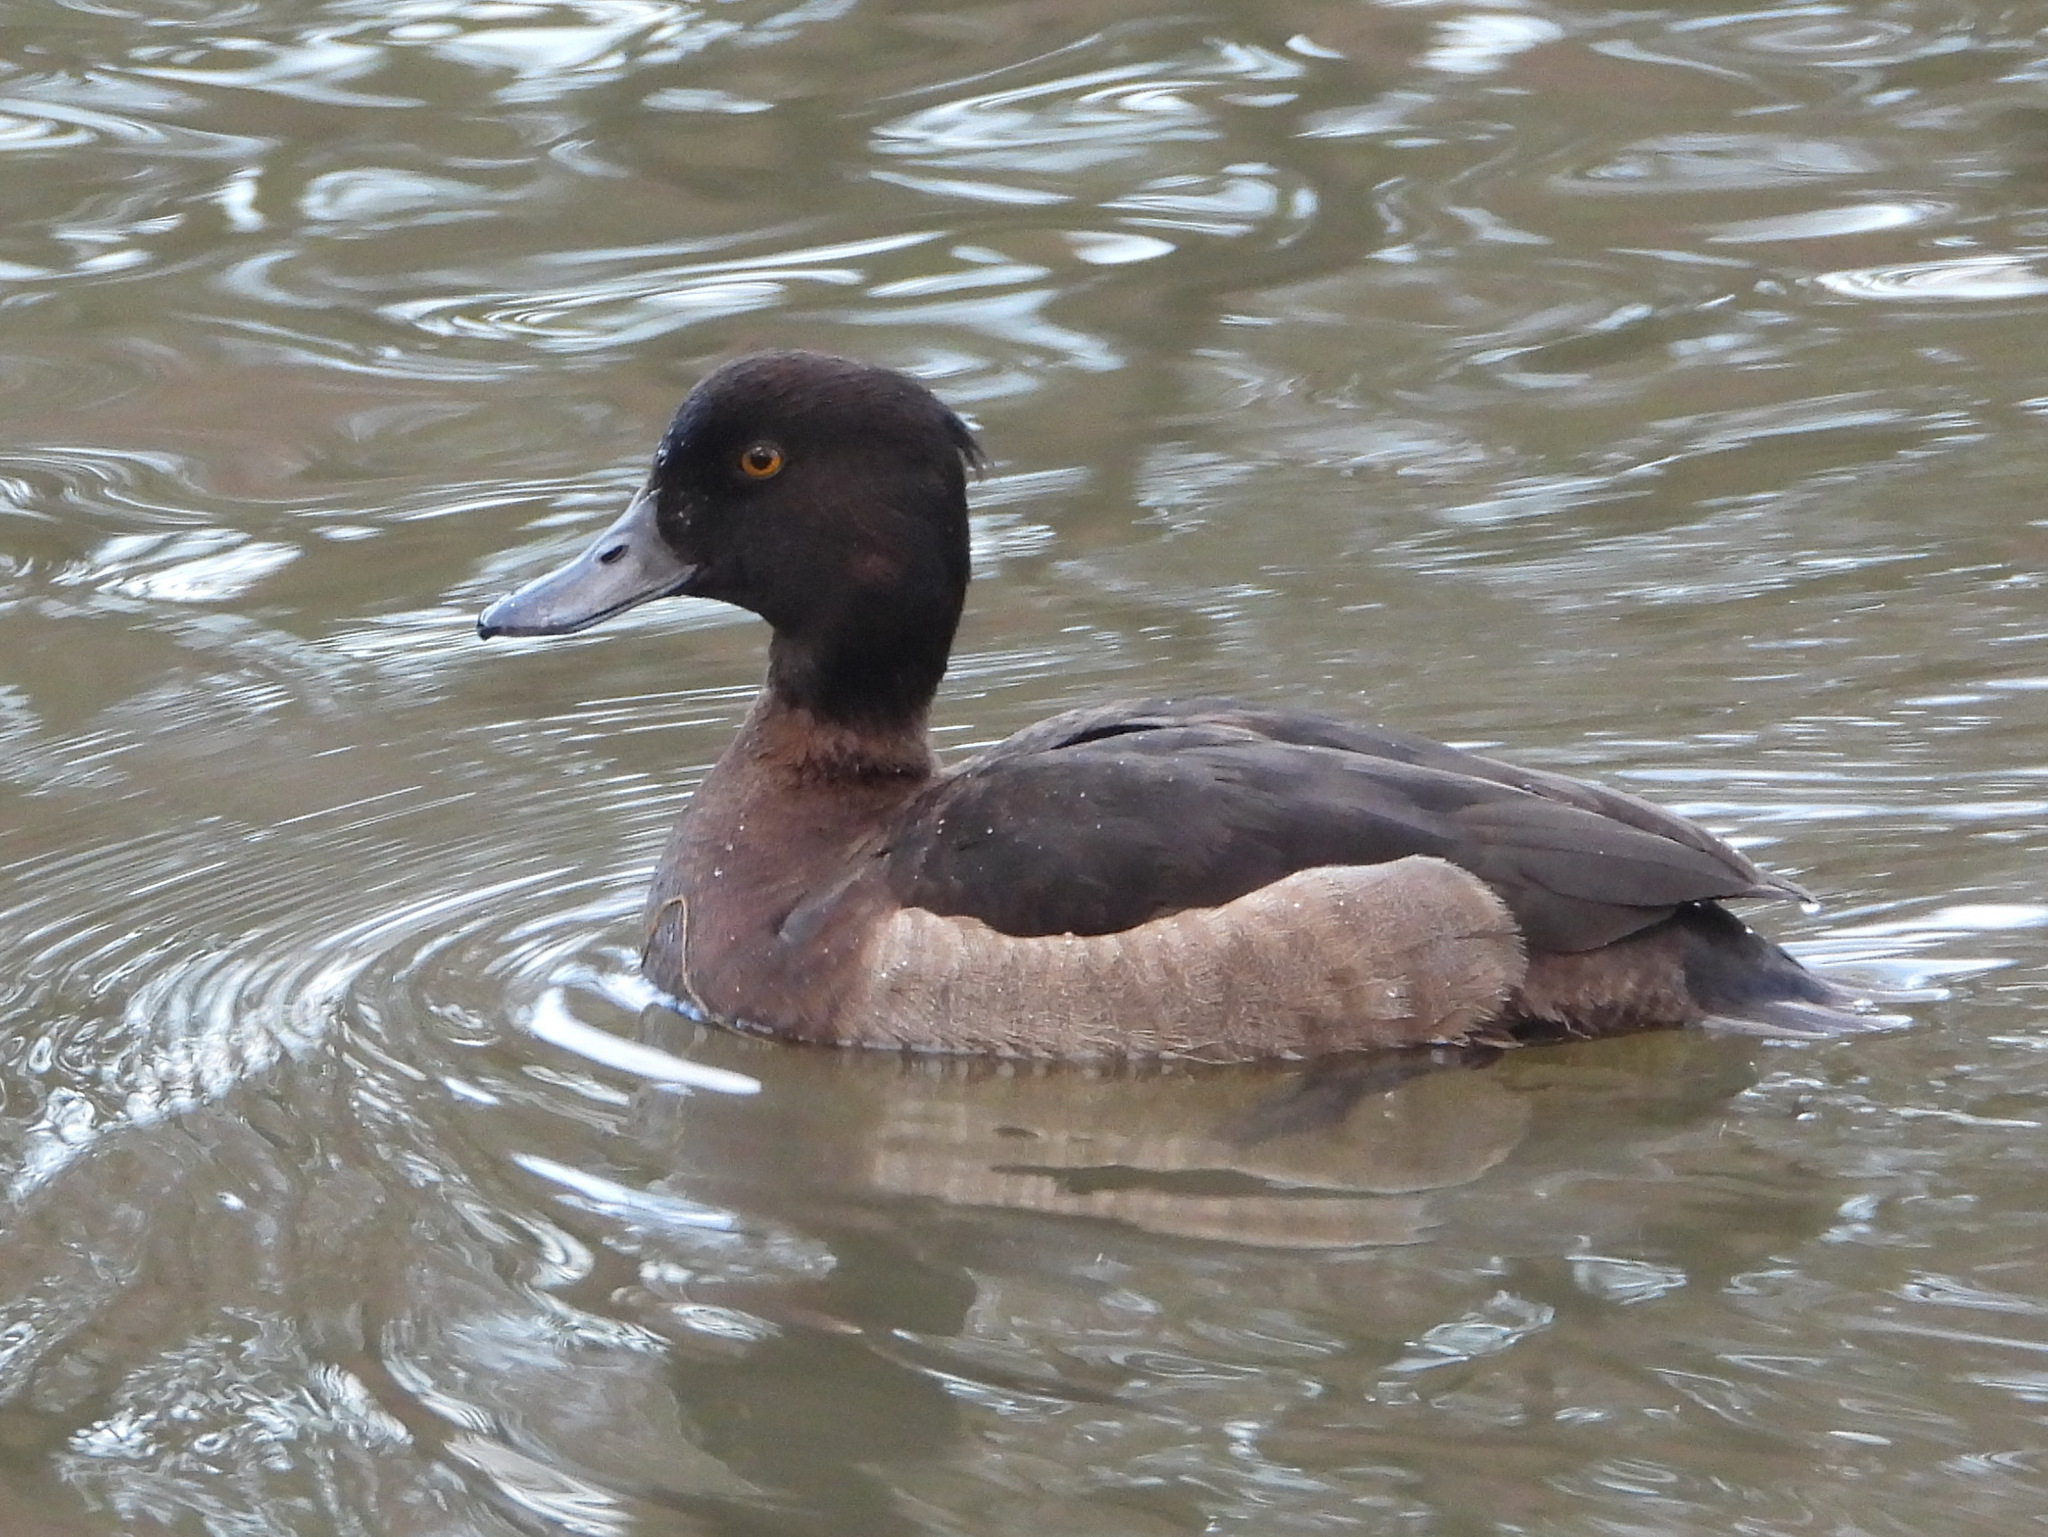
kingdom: Animalia
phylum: Chordata
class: Aves
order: Anseriformes
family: Anatidae
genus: Aythya
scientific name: Aythya fuligula
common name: Tufted duck
